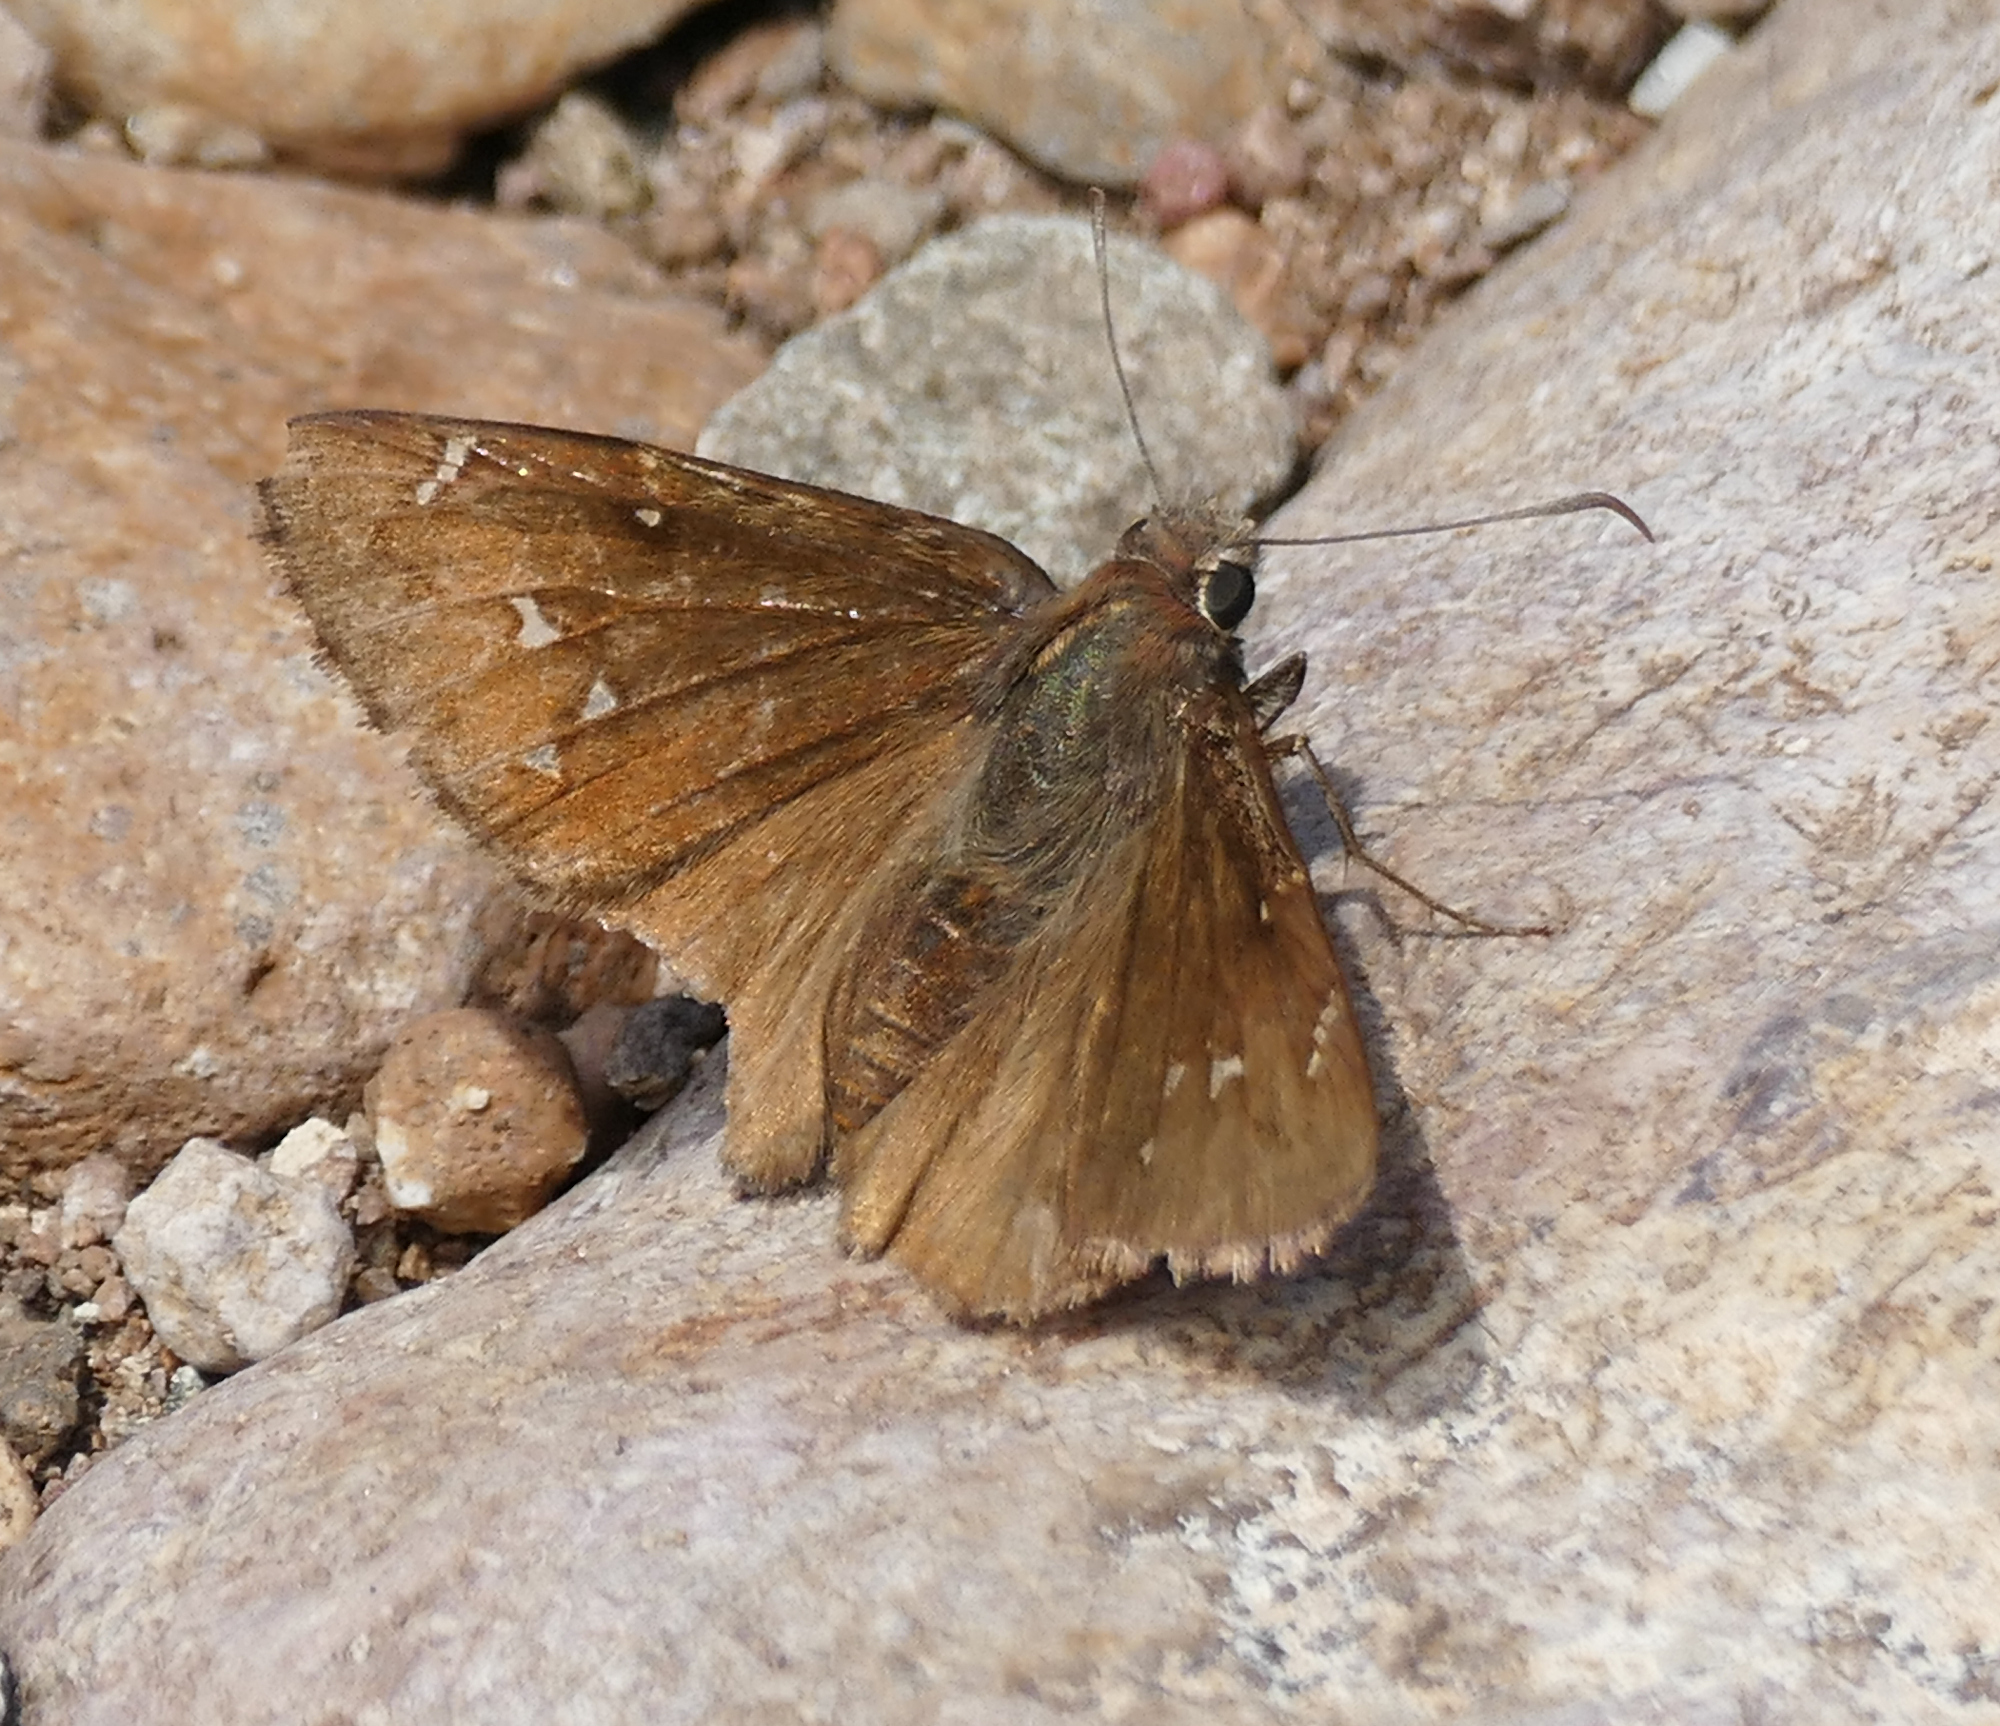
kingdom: Animalia
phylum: Arthropoda
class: Insecta
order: Lepidoptera
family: Hesperiidae
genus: Thorybes
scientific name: Thorybes pylades
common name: Northern cloudywing
